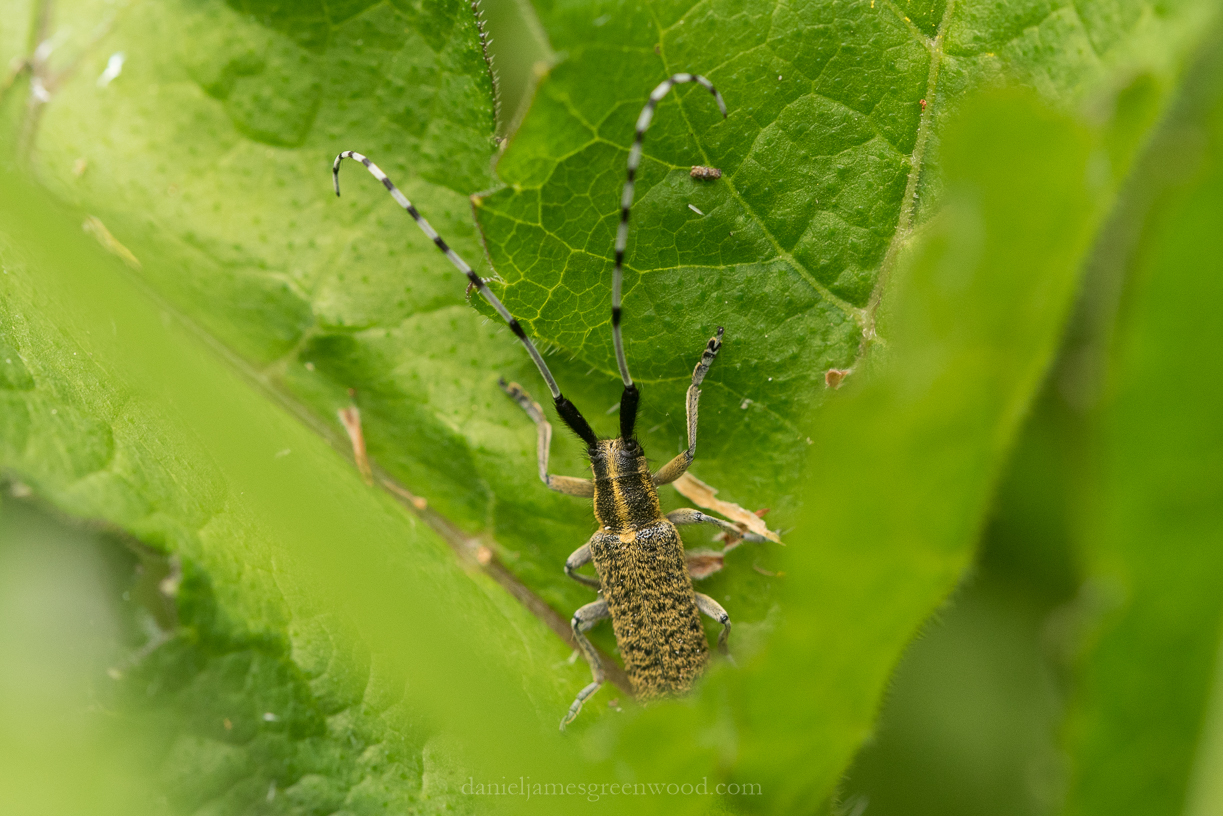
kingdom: Animalia
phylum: Arthropoda
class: Insecta
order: Coleoptera
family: Cerambycidae
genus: Agapanthia
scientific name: Agapanthia villosoviridescens
